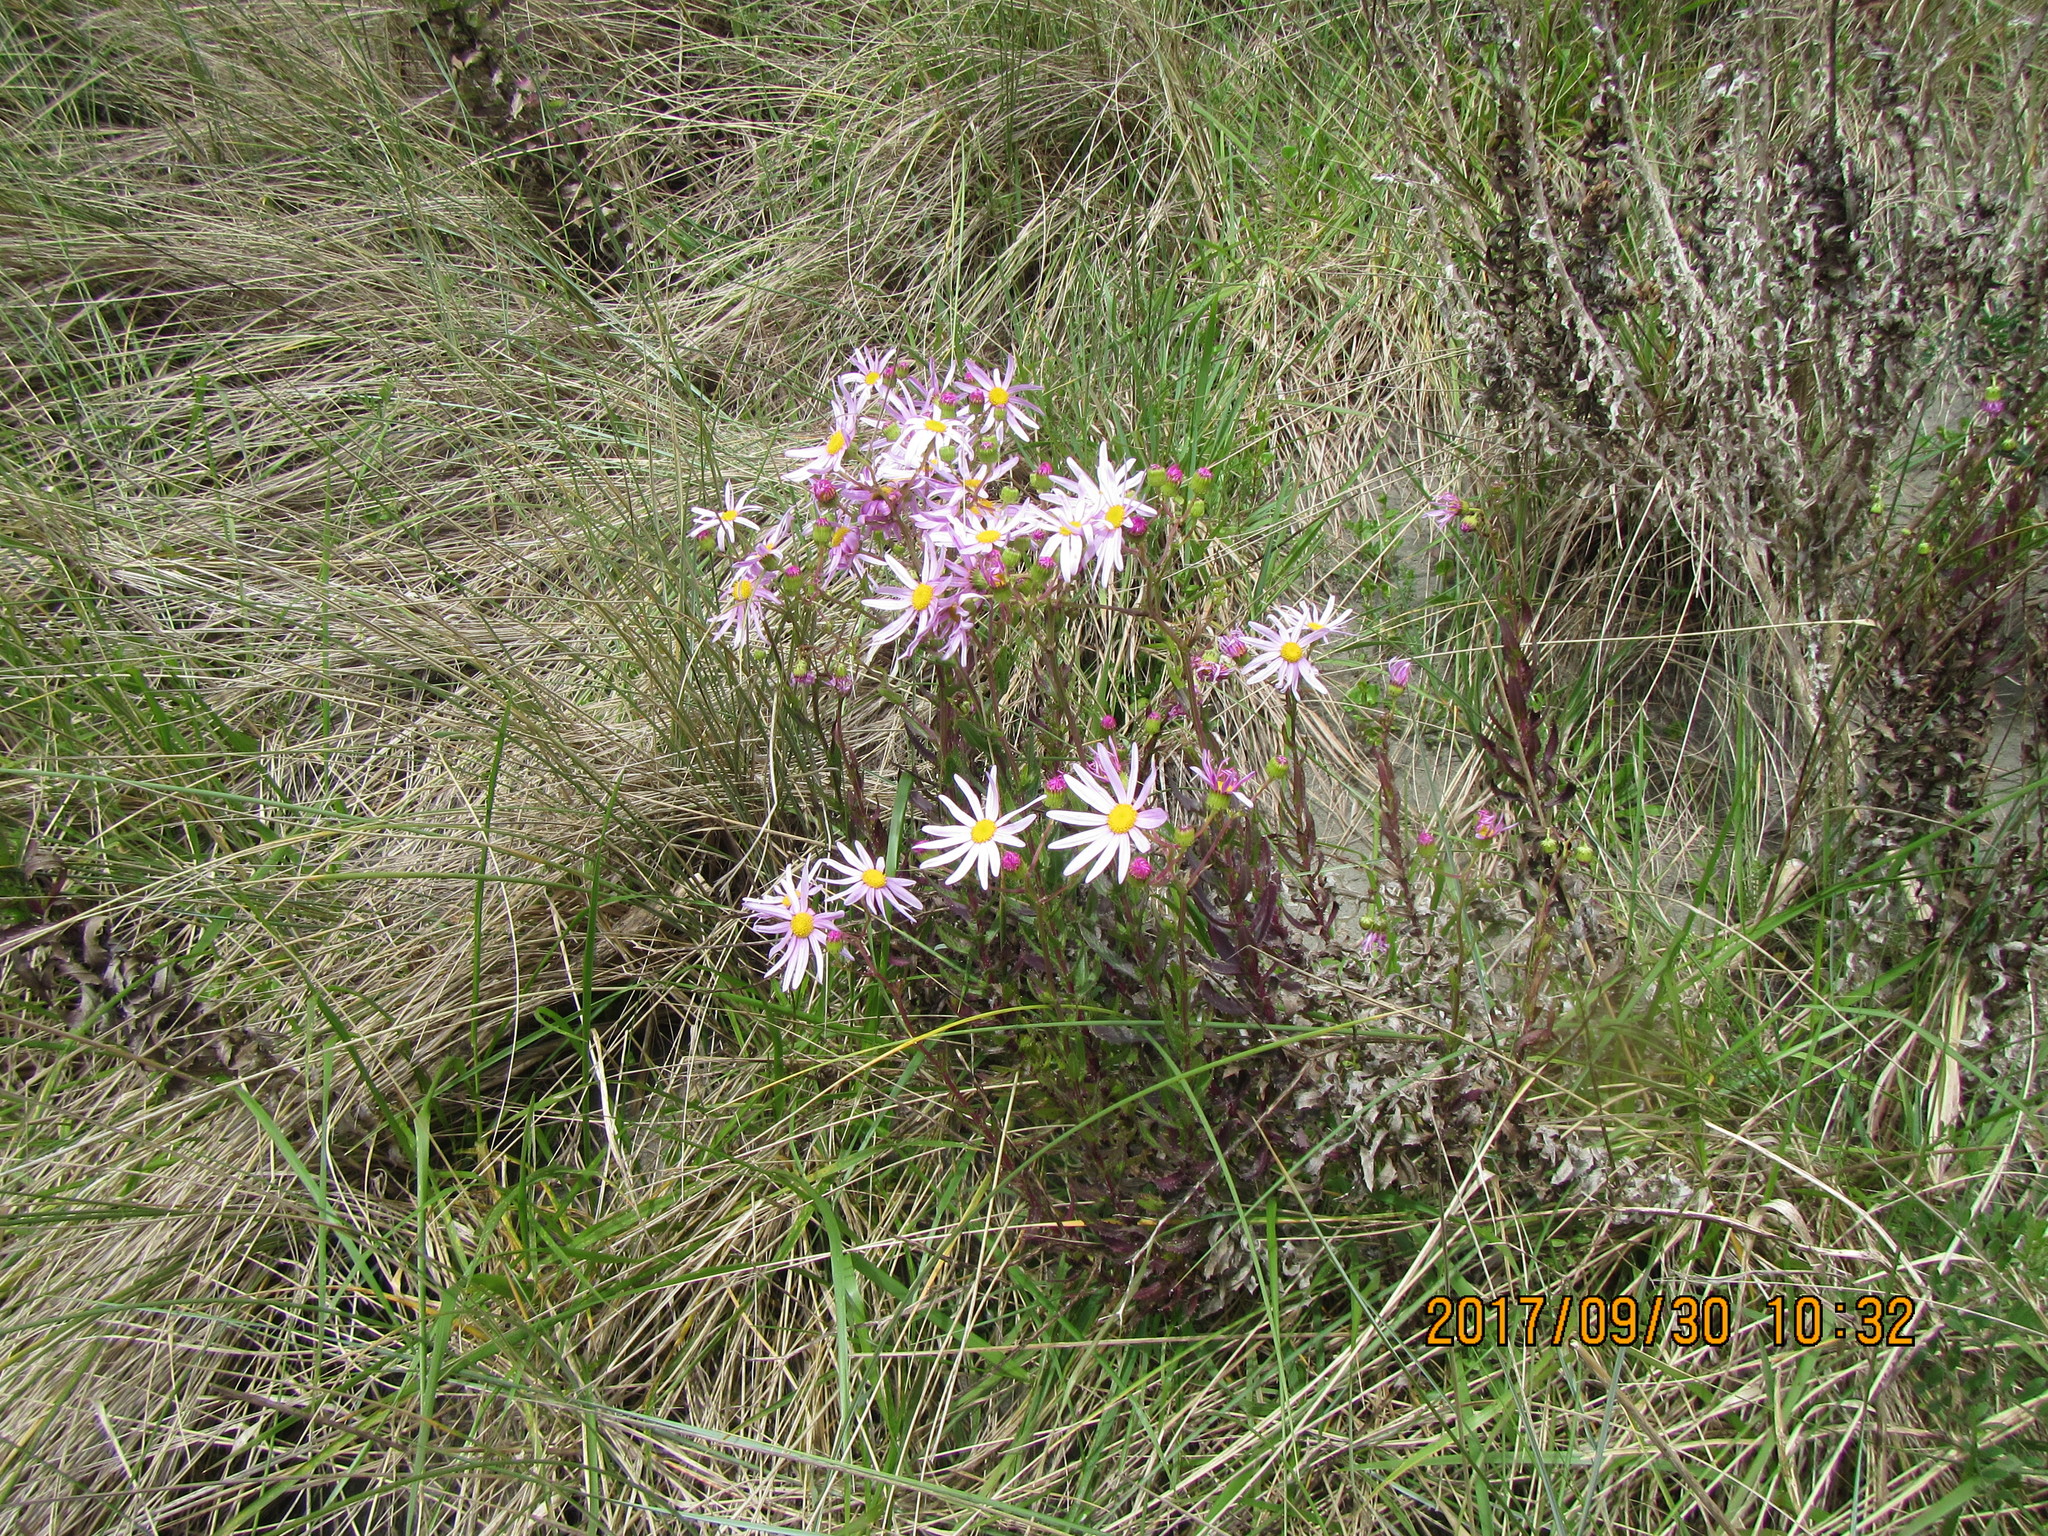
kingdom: Plantae
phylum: Tracheophyta
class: Magnoliopsida
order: Asterales
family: Asteraceae
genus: Senecio
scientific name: Senecio glastifolius
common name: Woad-leaved ragwort
